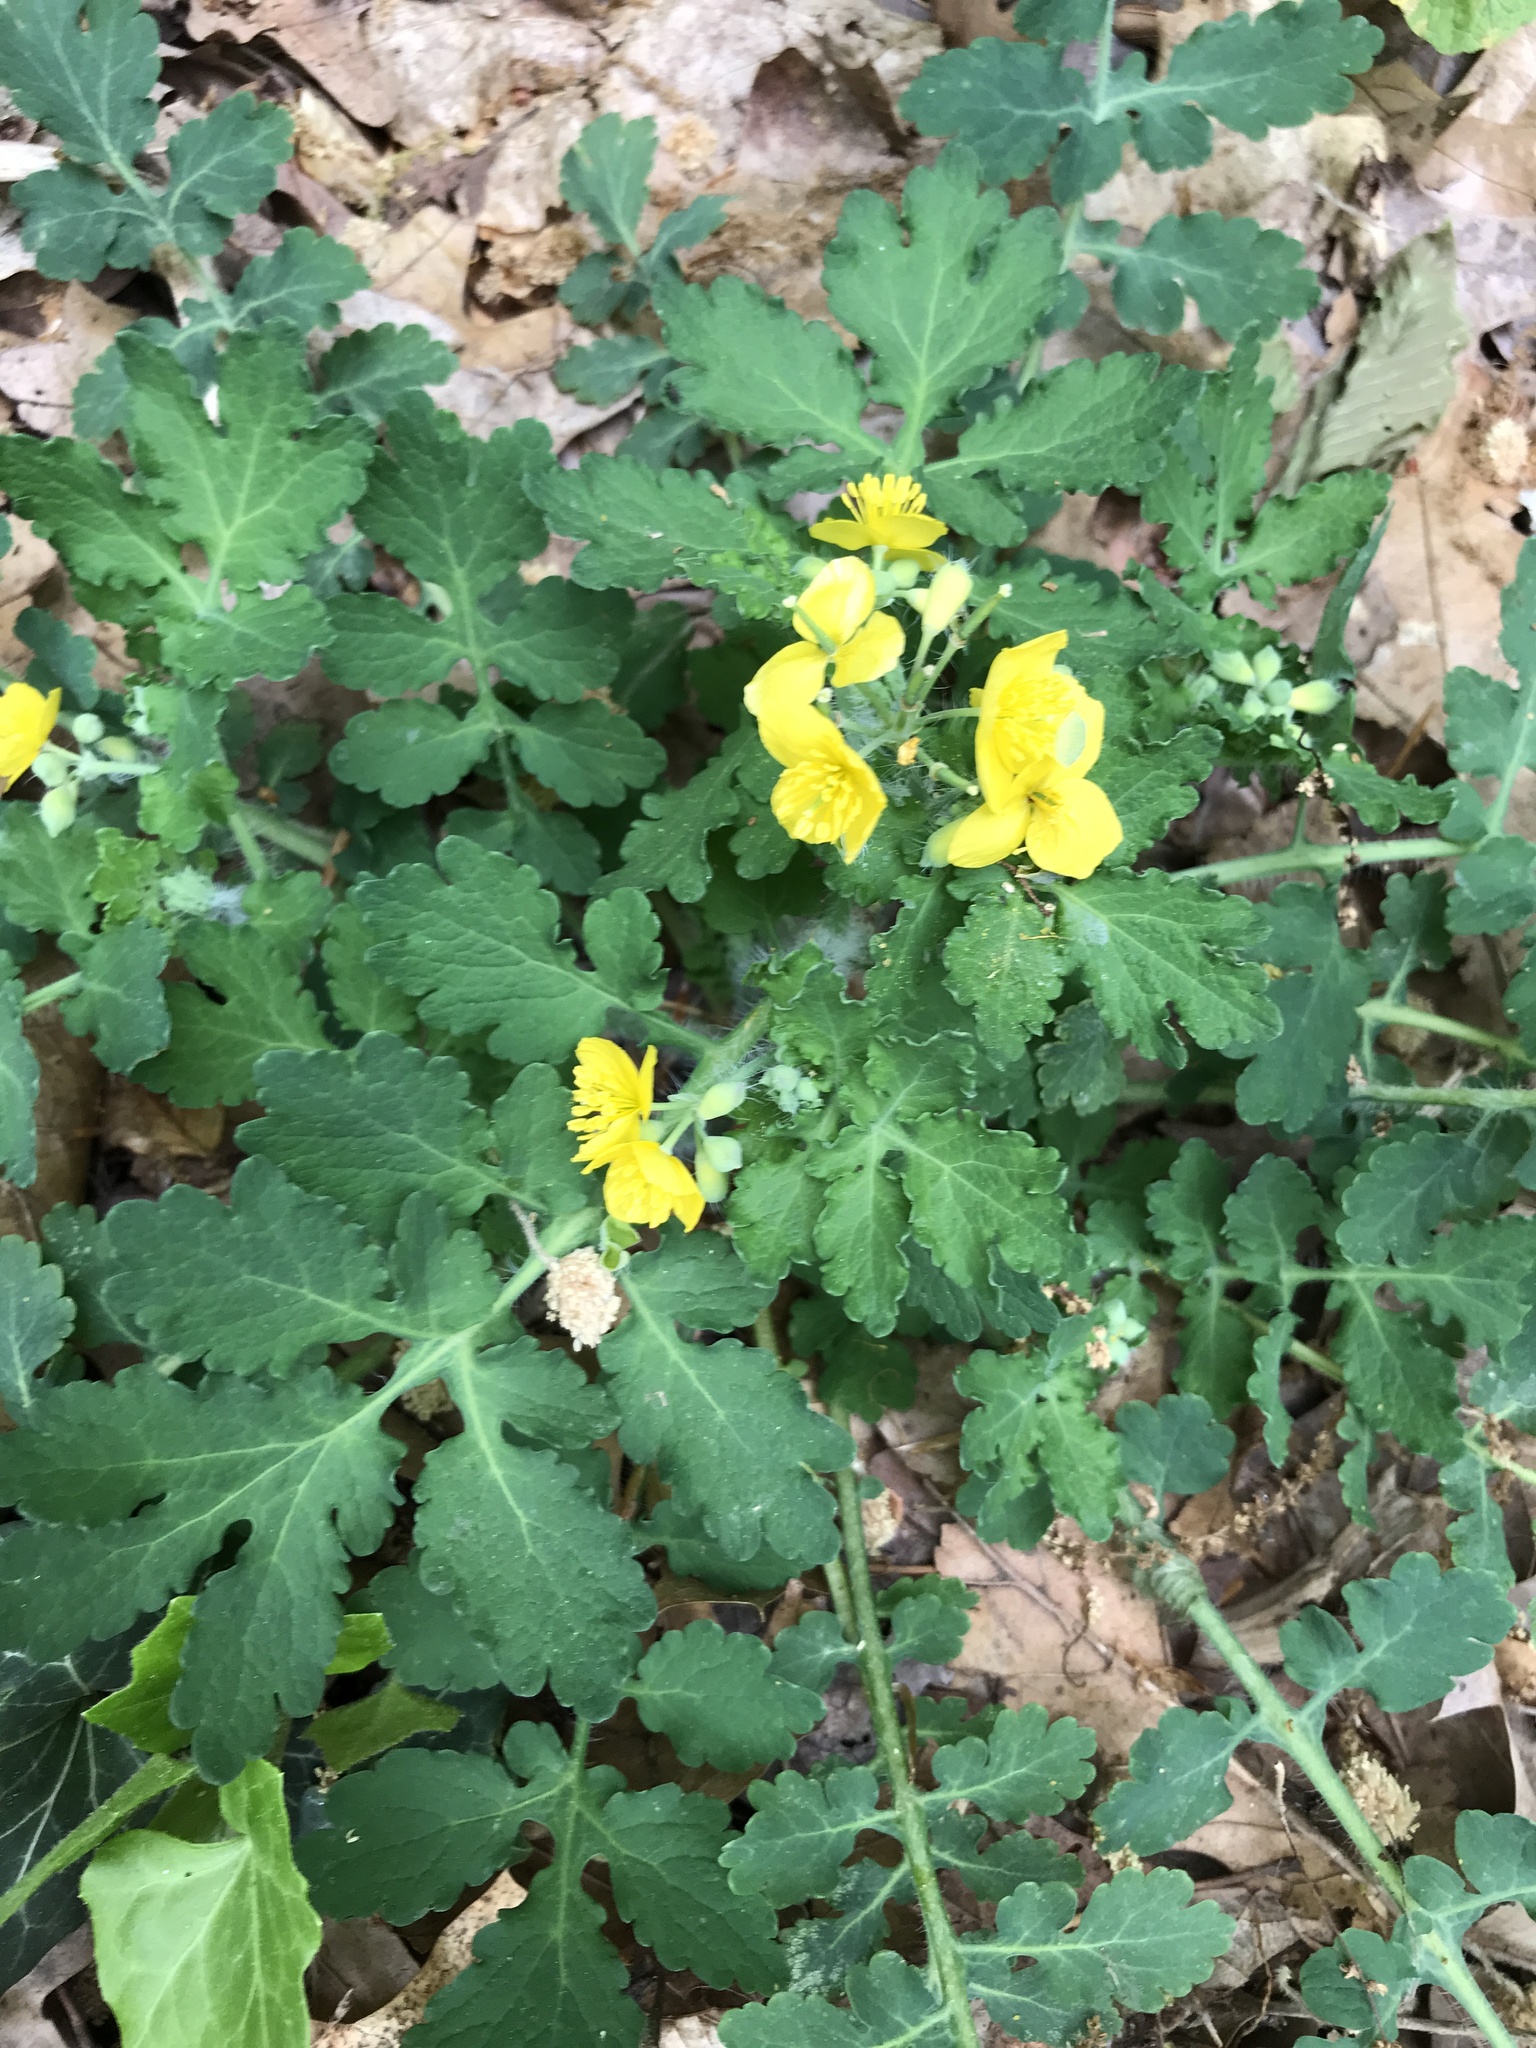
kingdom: Plantae
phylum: Tracheophyta
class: Magnoliopsida
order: Ranunculales
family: Papaveraceae
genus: Chelidonium
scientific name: Chelidonium majus
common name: Greater celandine
